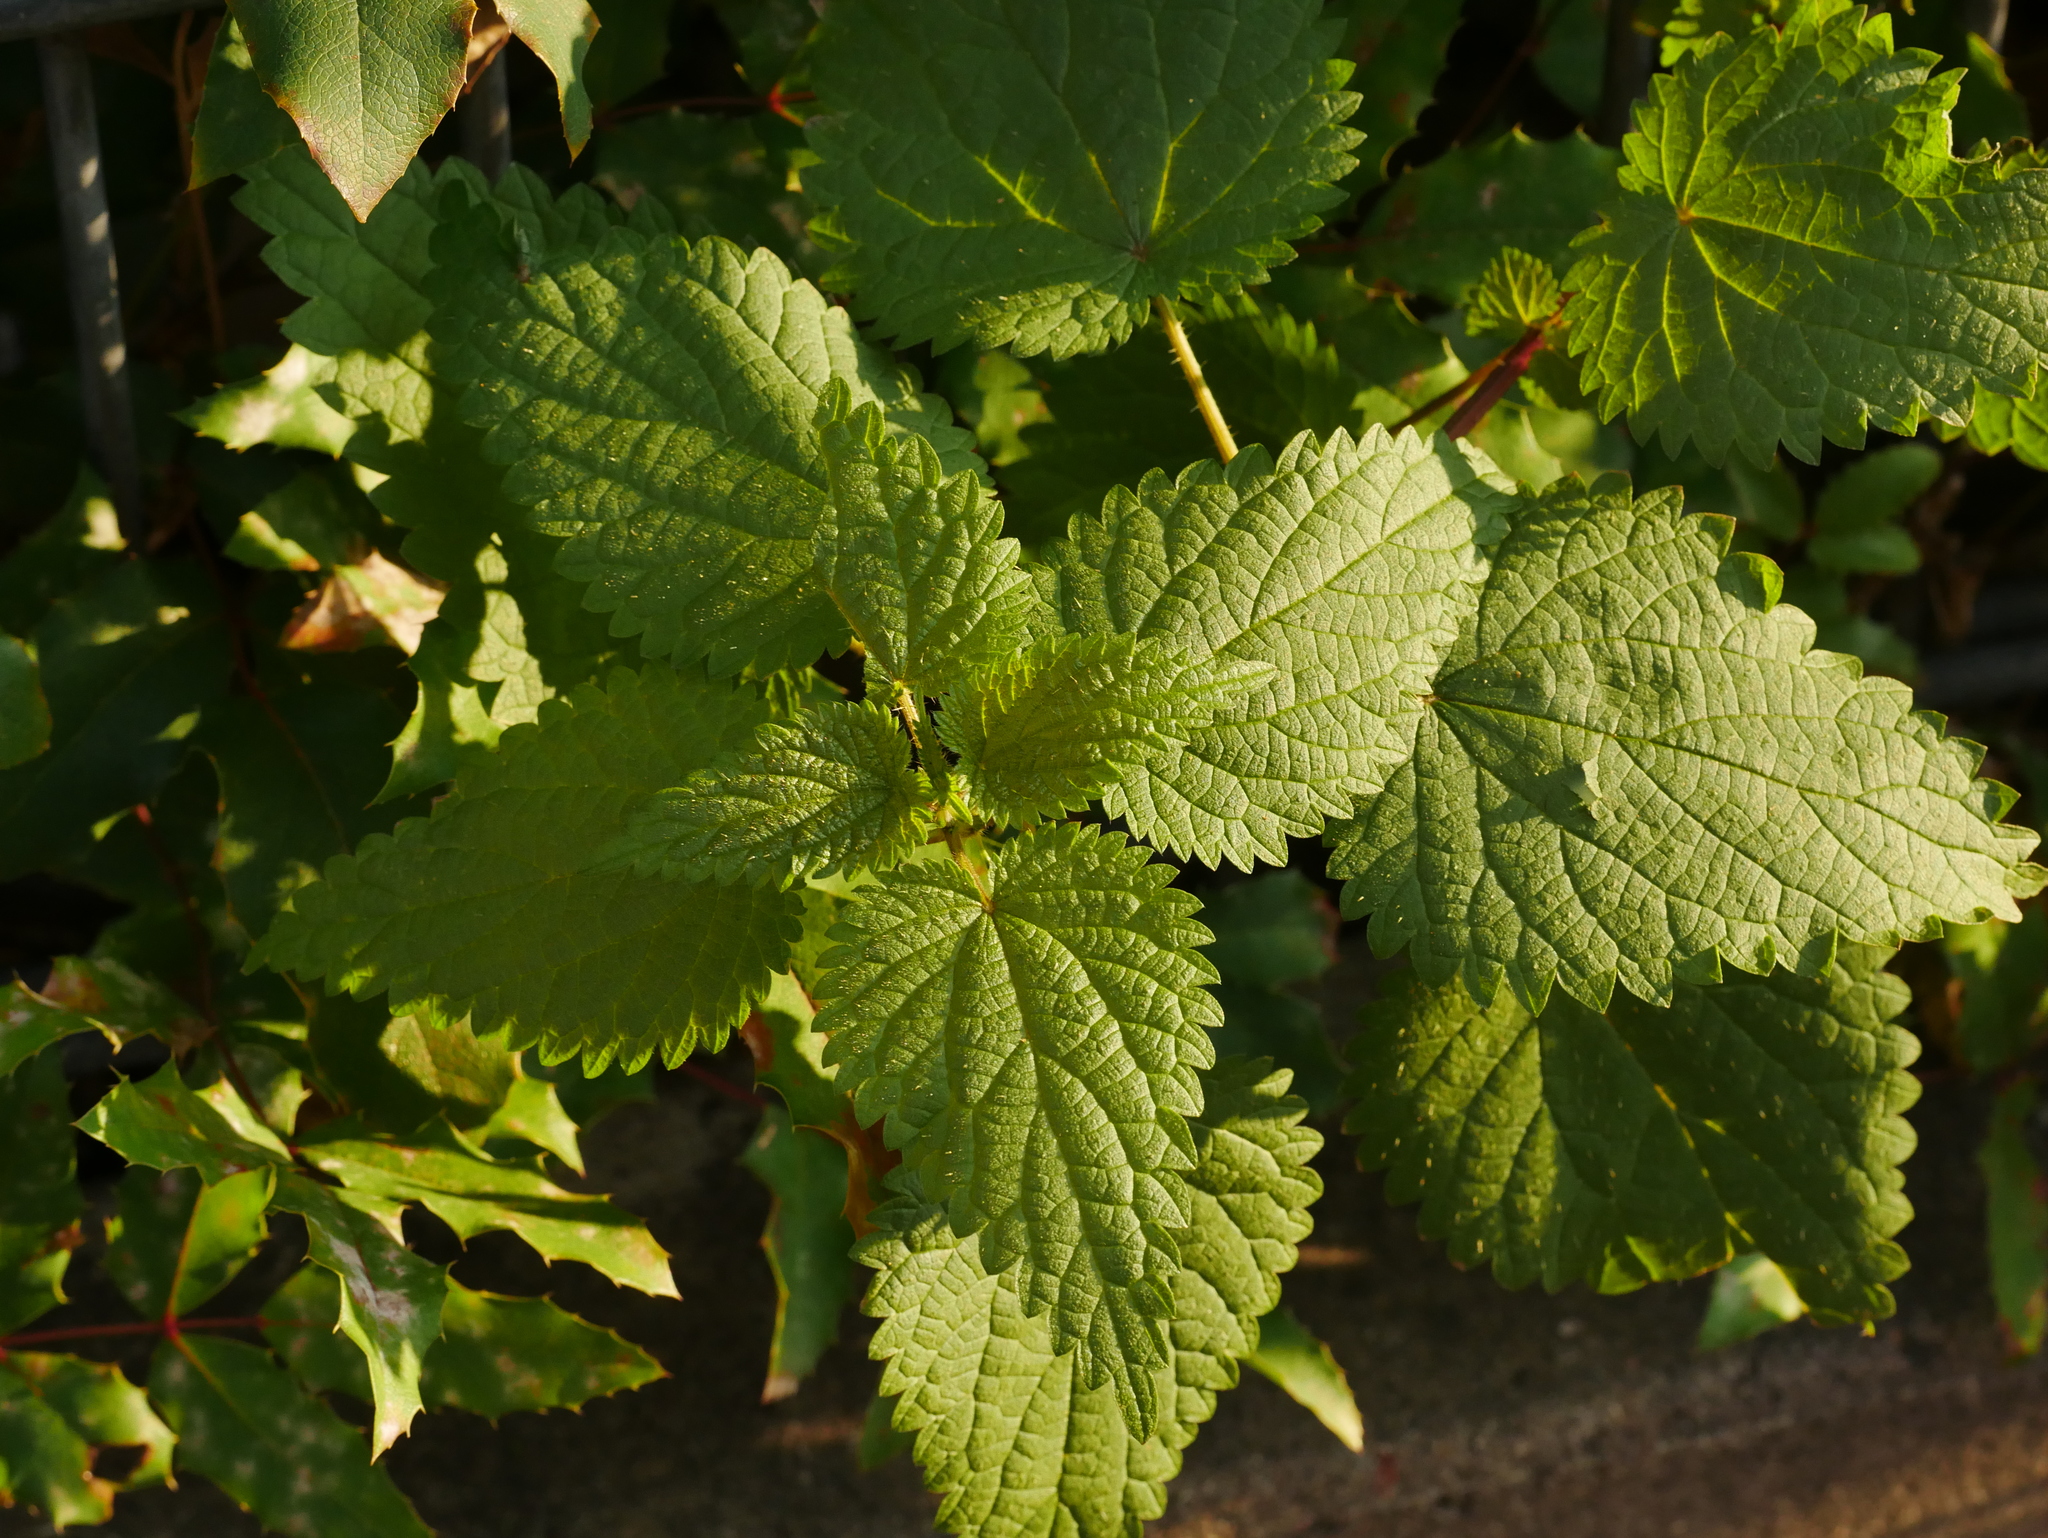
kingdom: Plantae
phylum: Tracheophyta
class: Magnoliopsida
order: Rosales
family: Urticaceae
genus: Urtica
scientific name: Urtica dioica
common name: Common nettle
